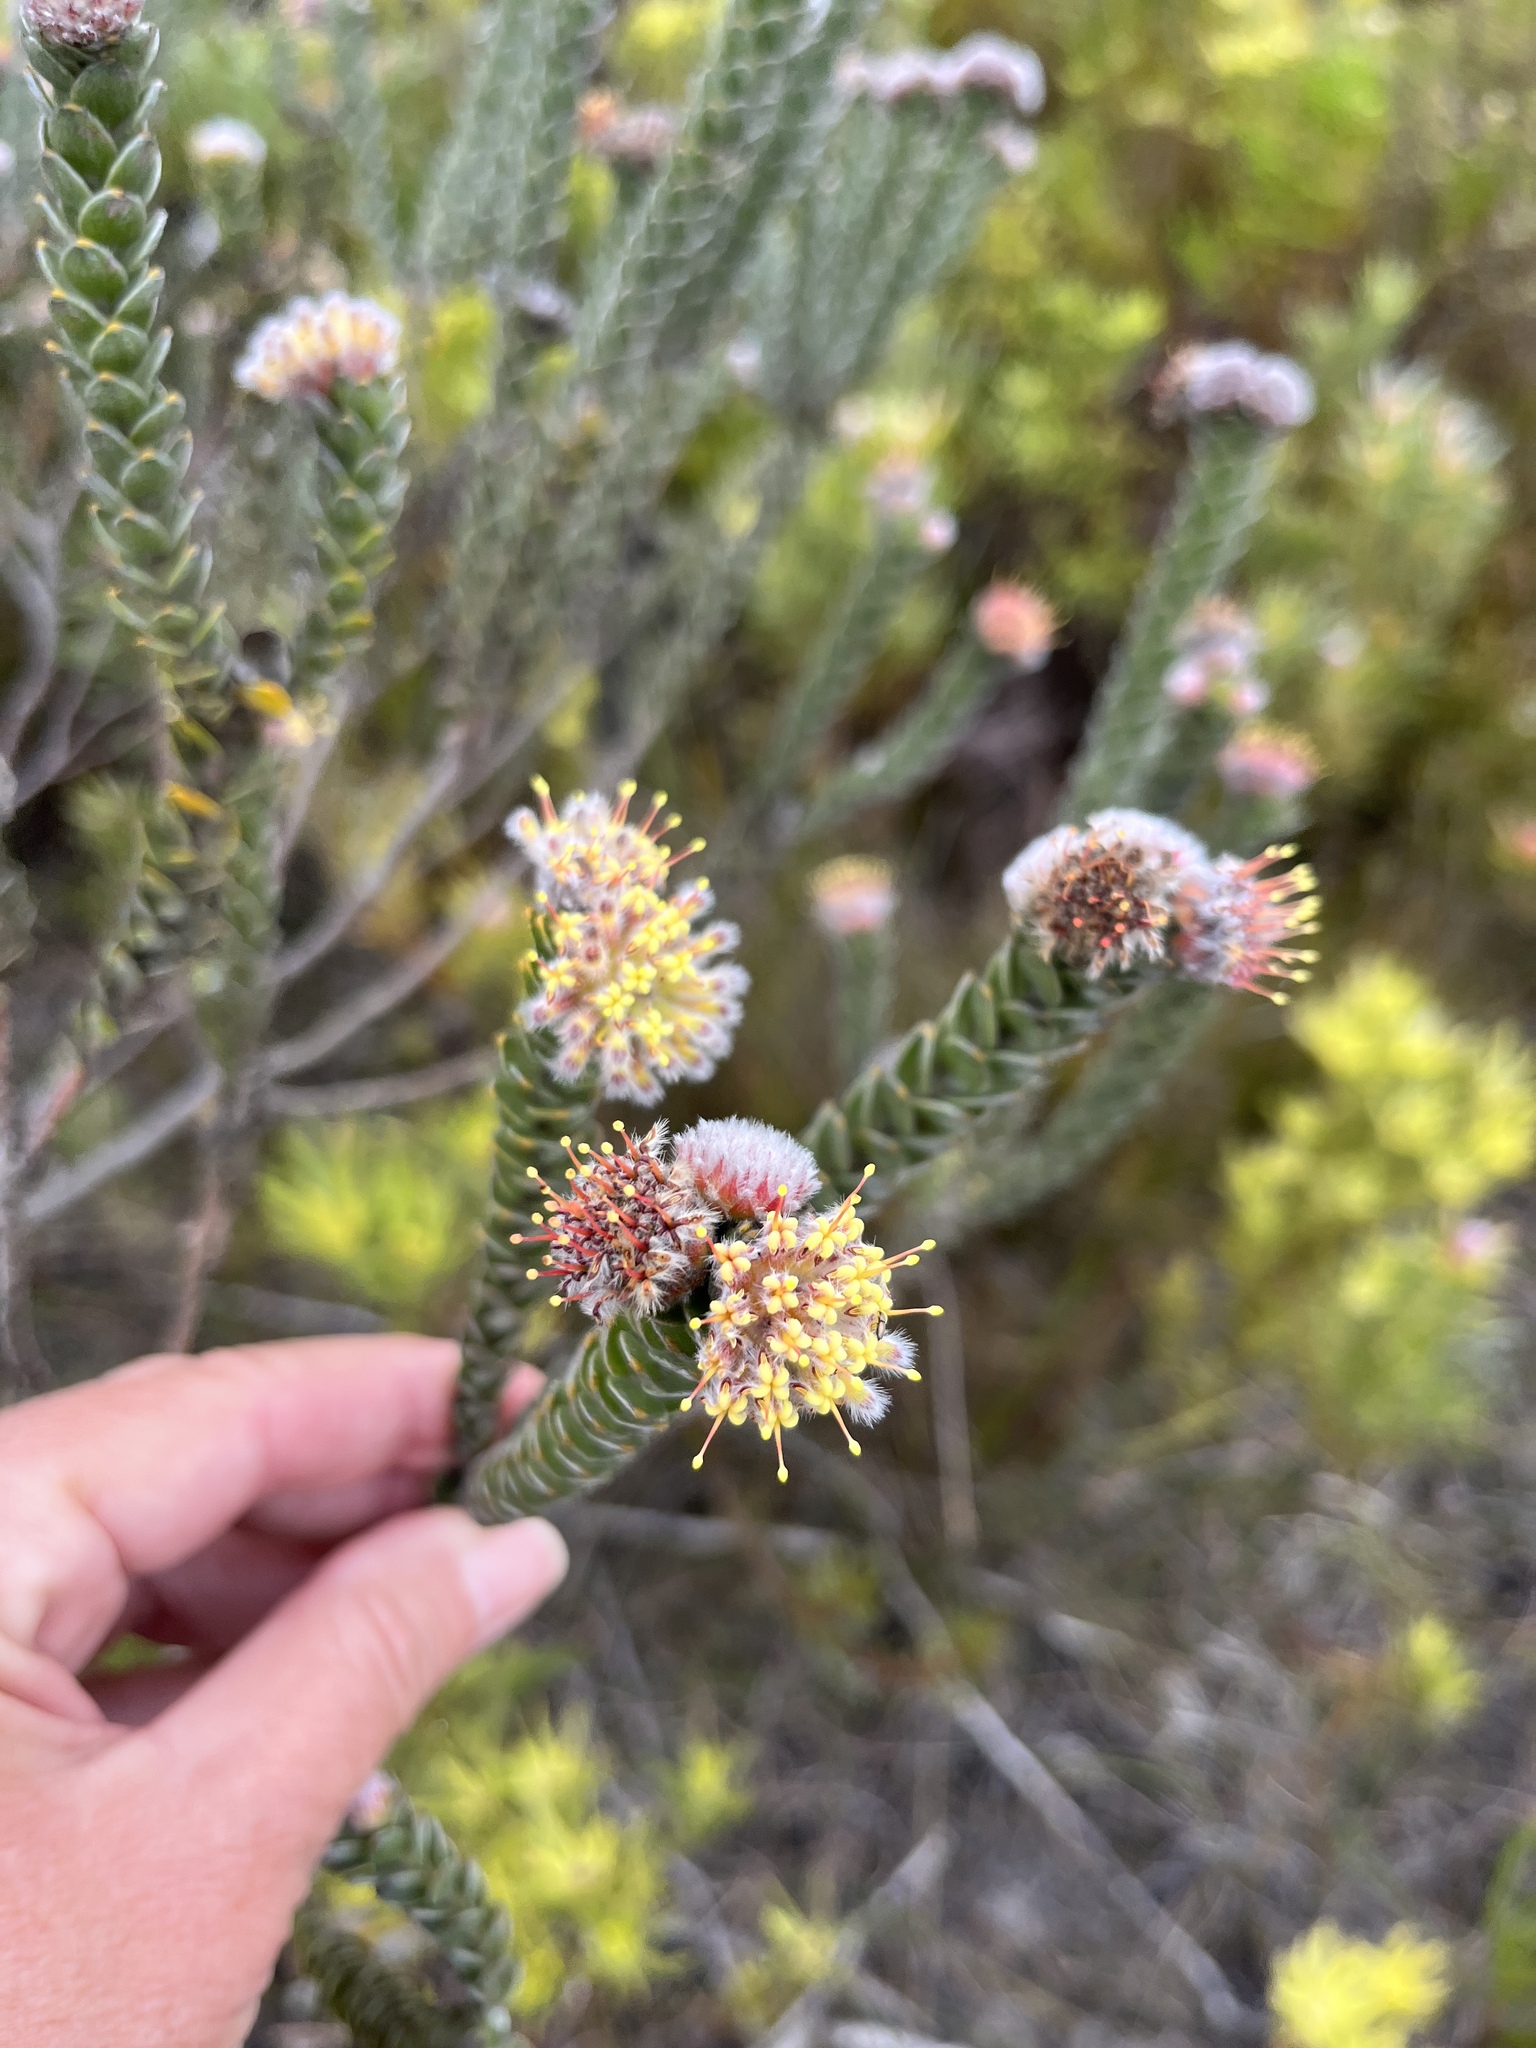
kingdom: Plantae
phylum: Tracheophyta
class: Magnoliopsida
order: Proteales
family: Proteaceae
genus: Leucospermum
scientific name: Leucospermum truncatulum
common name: Oval-leaf pincushion
